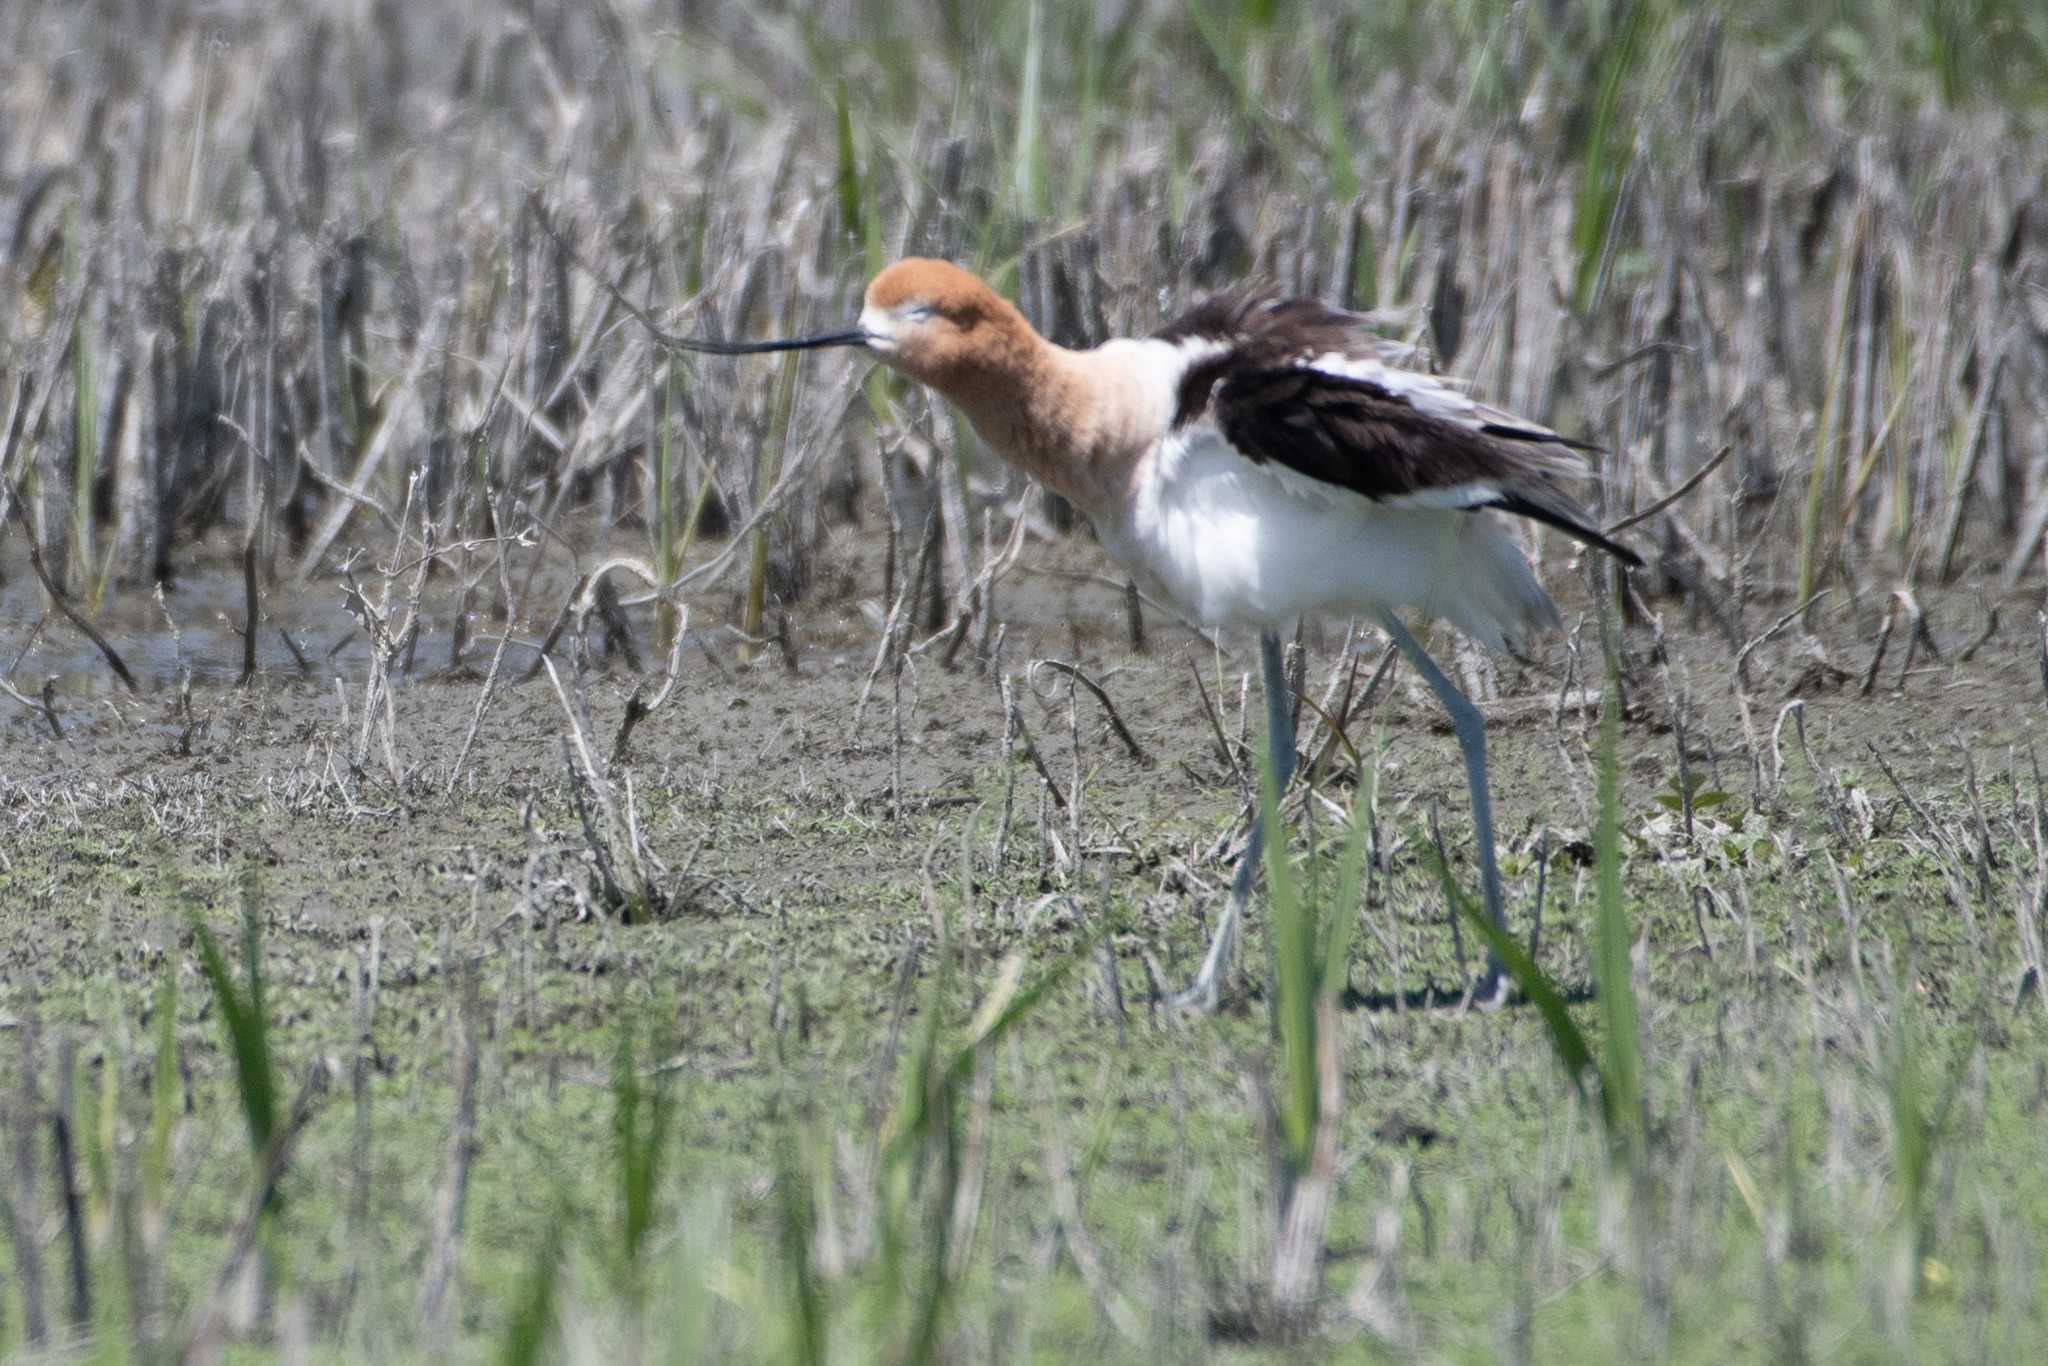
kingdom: Animalia
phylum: Chordata
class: Aves
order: Charadriiformes
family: Recurvirostridae
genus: Recurvirostra
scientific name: Recurvirostra americana
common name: American avocet
